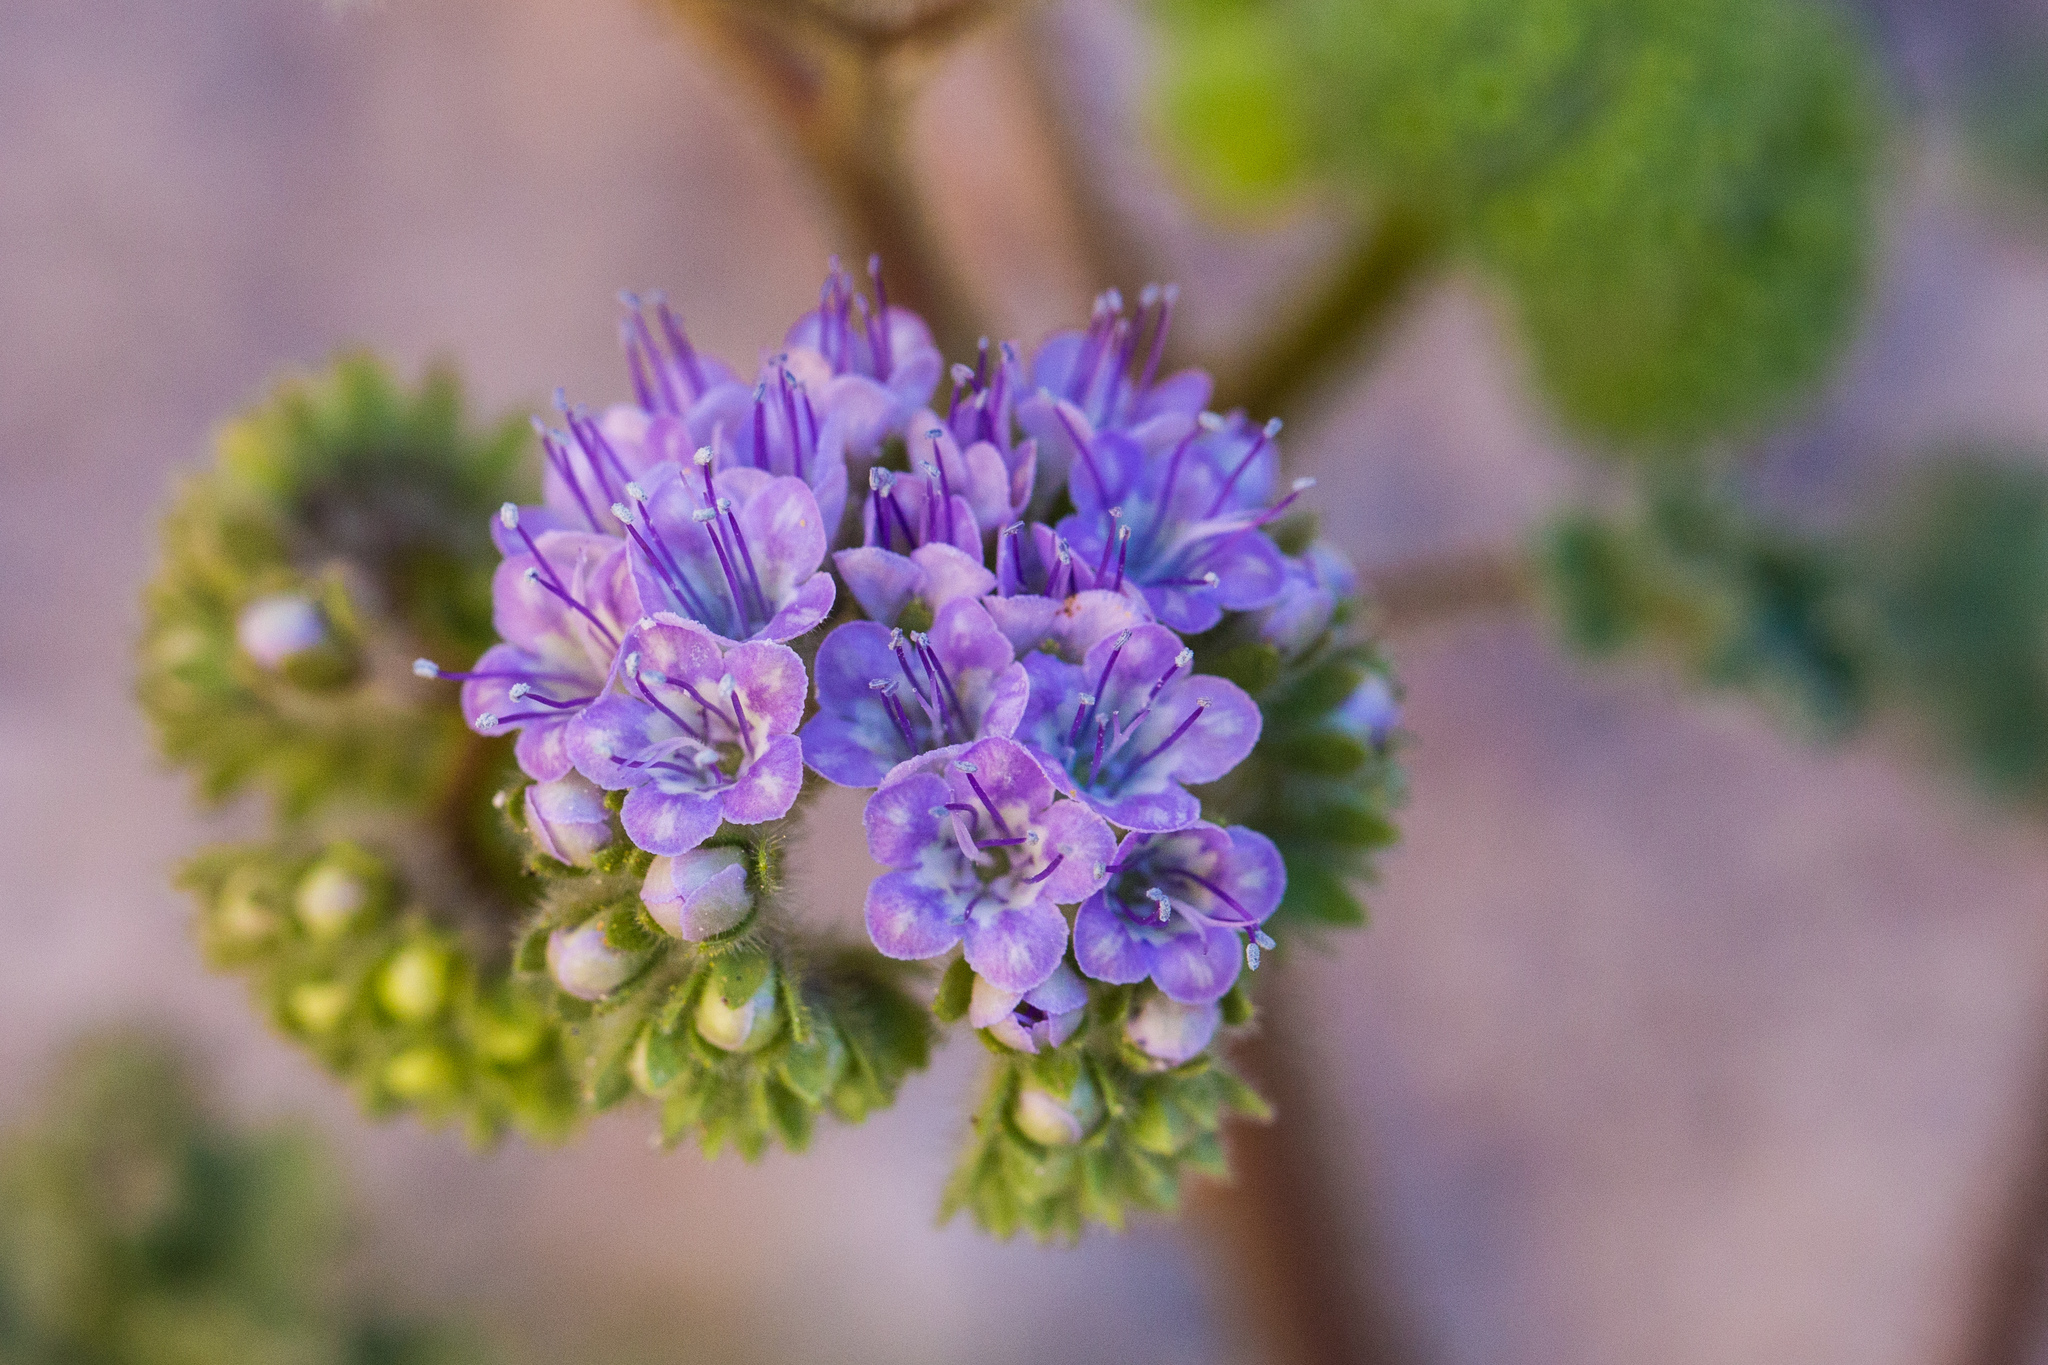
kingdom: Plantae
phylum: Tracheophyta
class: Magnoliopsida
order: Boraginales
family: Hydrophyllaceae
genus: Phacelia
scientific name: Phacelia pedicellata
